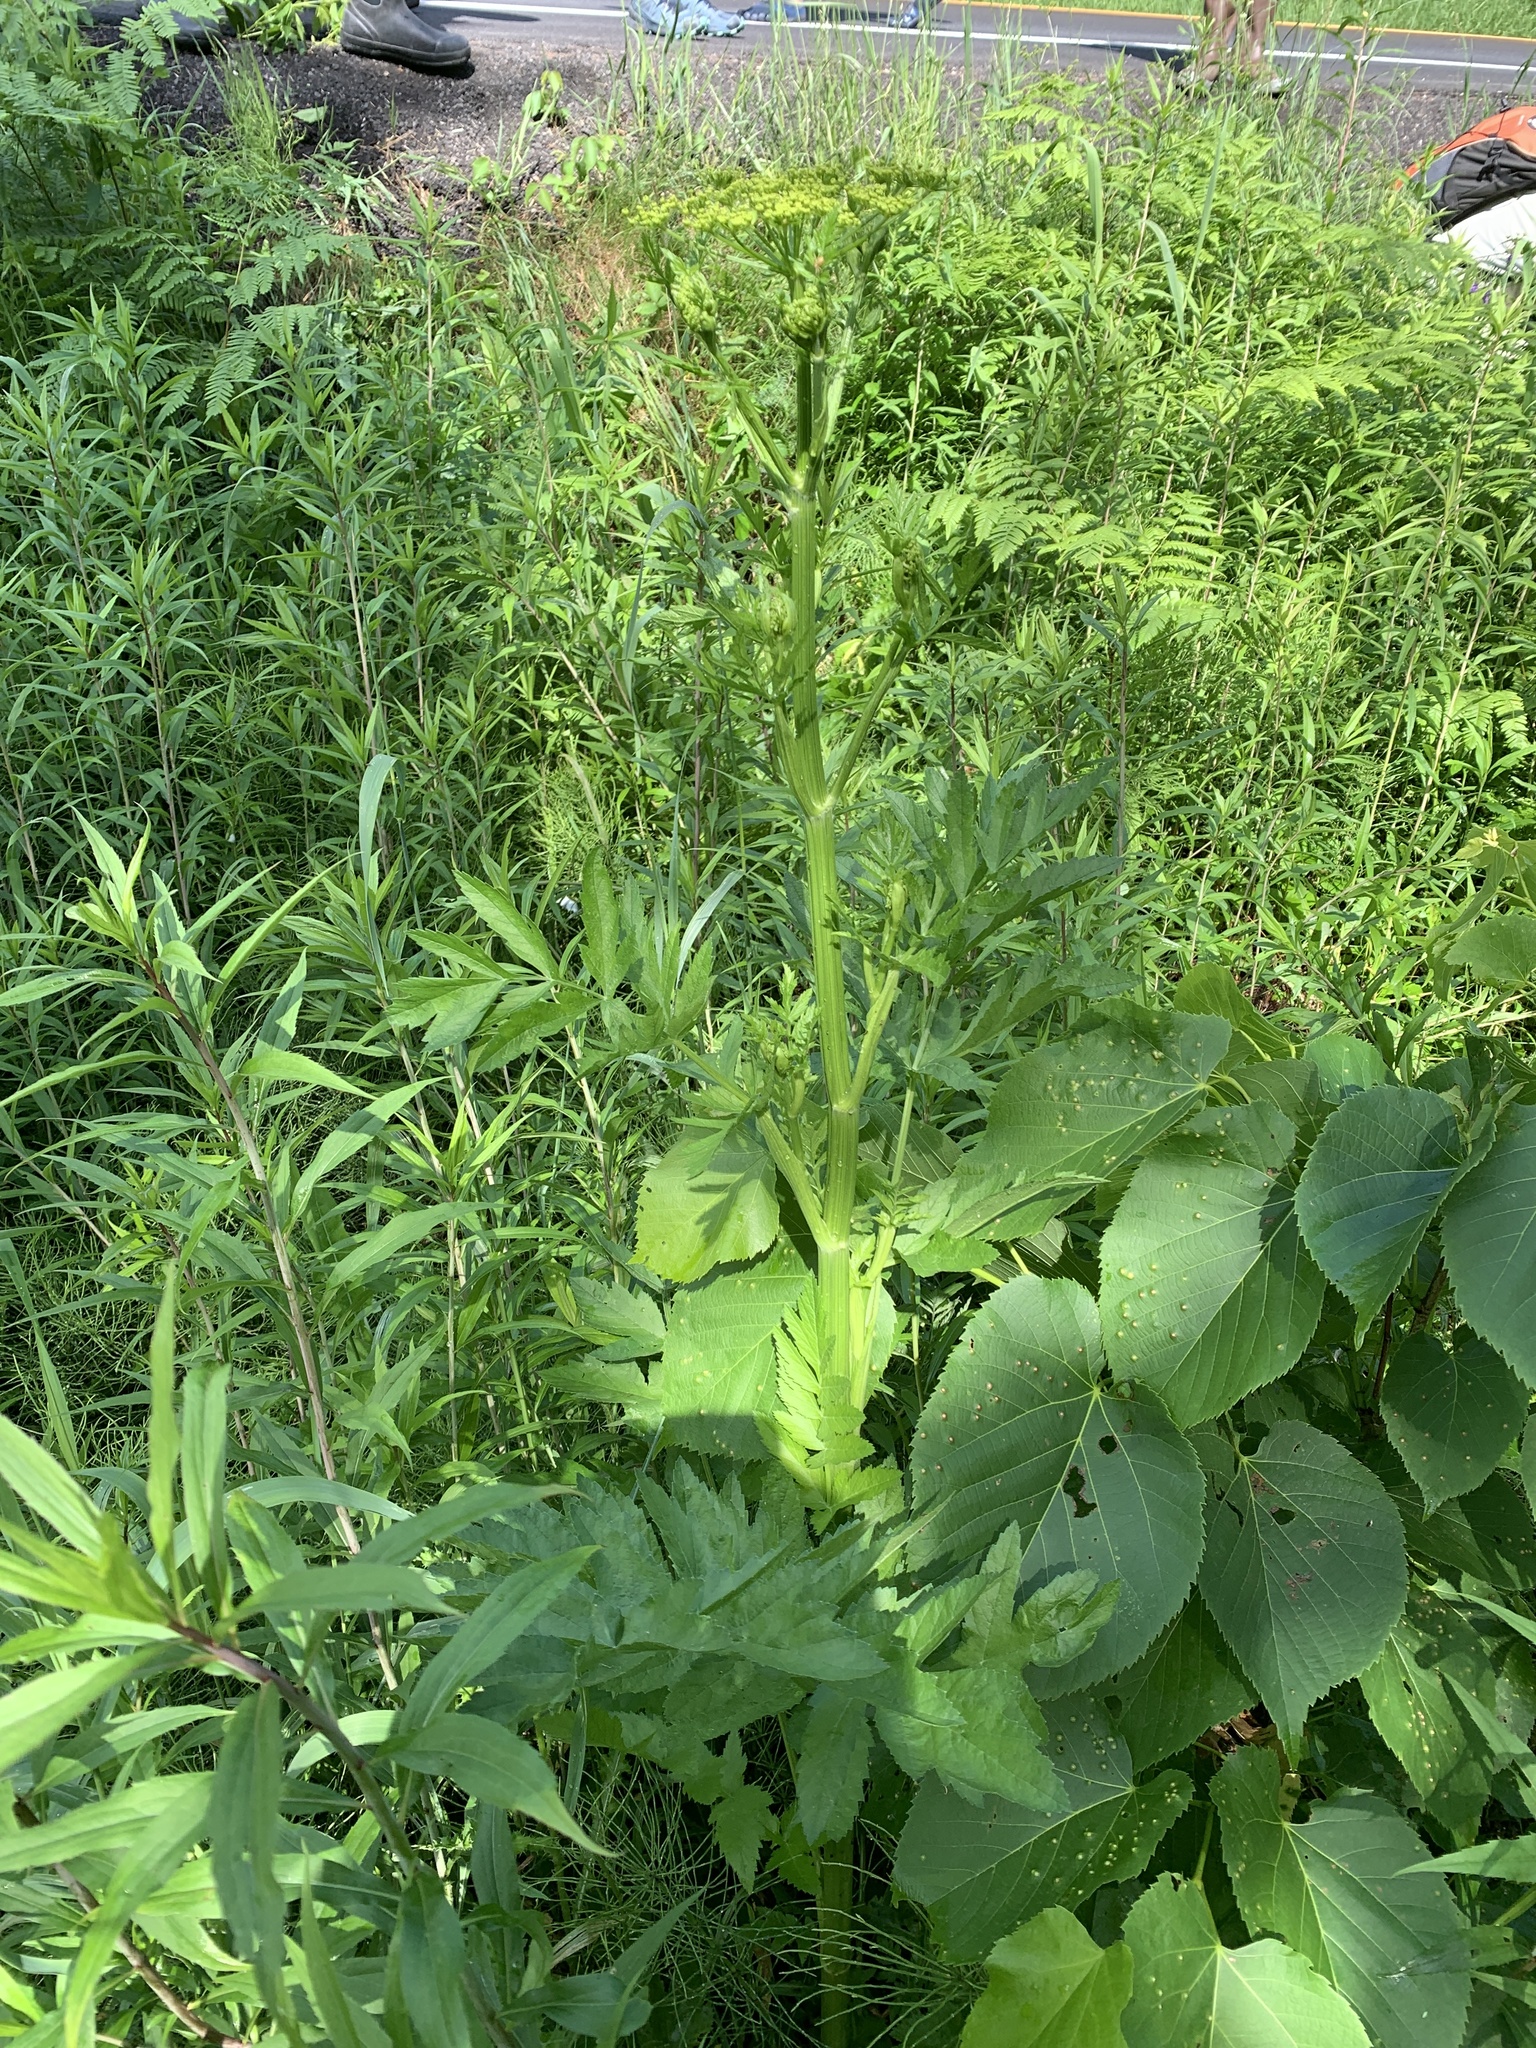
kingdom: Plantae
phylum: Tracheophyta
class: Magnoliopsida
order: Apiales
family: Apiaceae
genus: Pastinaca
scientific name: Pastinaca sativa
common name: Wild parsnip
